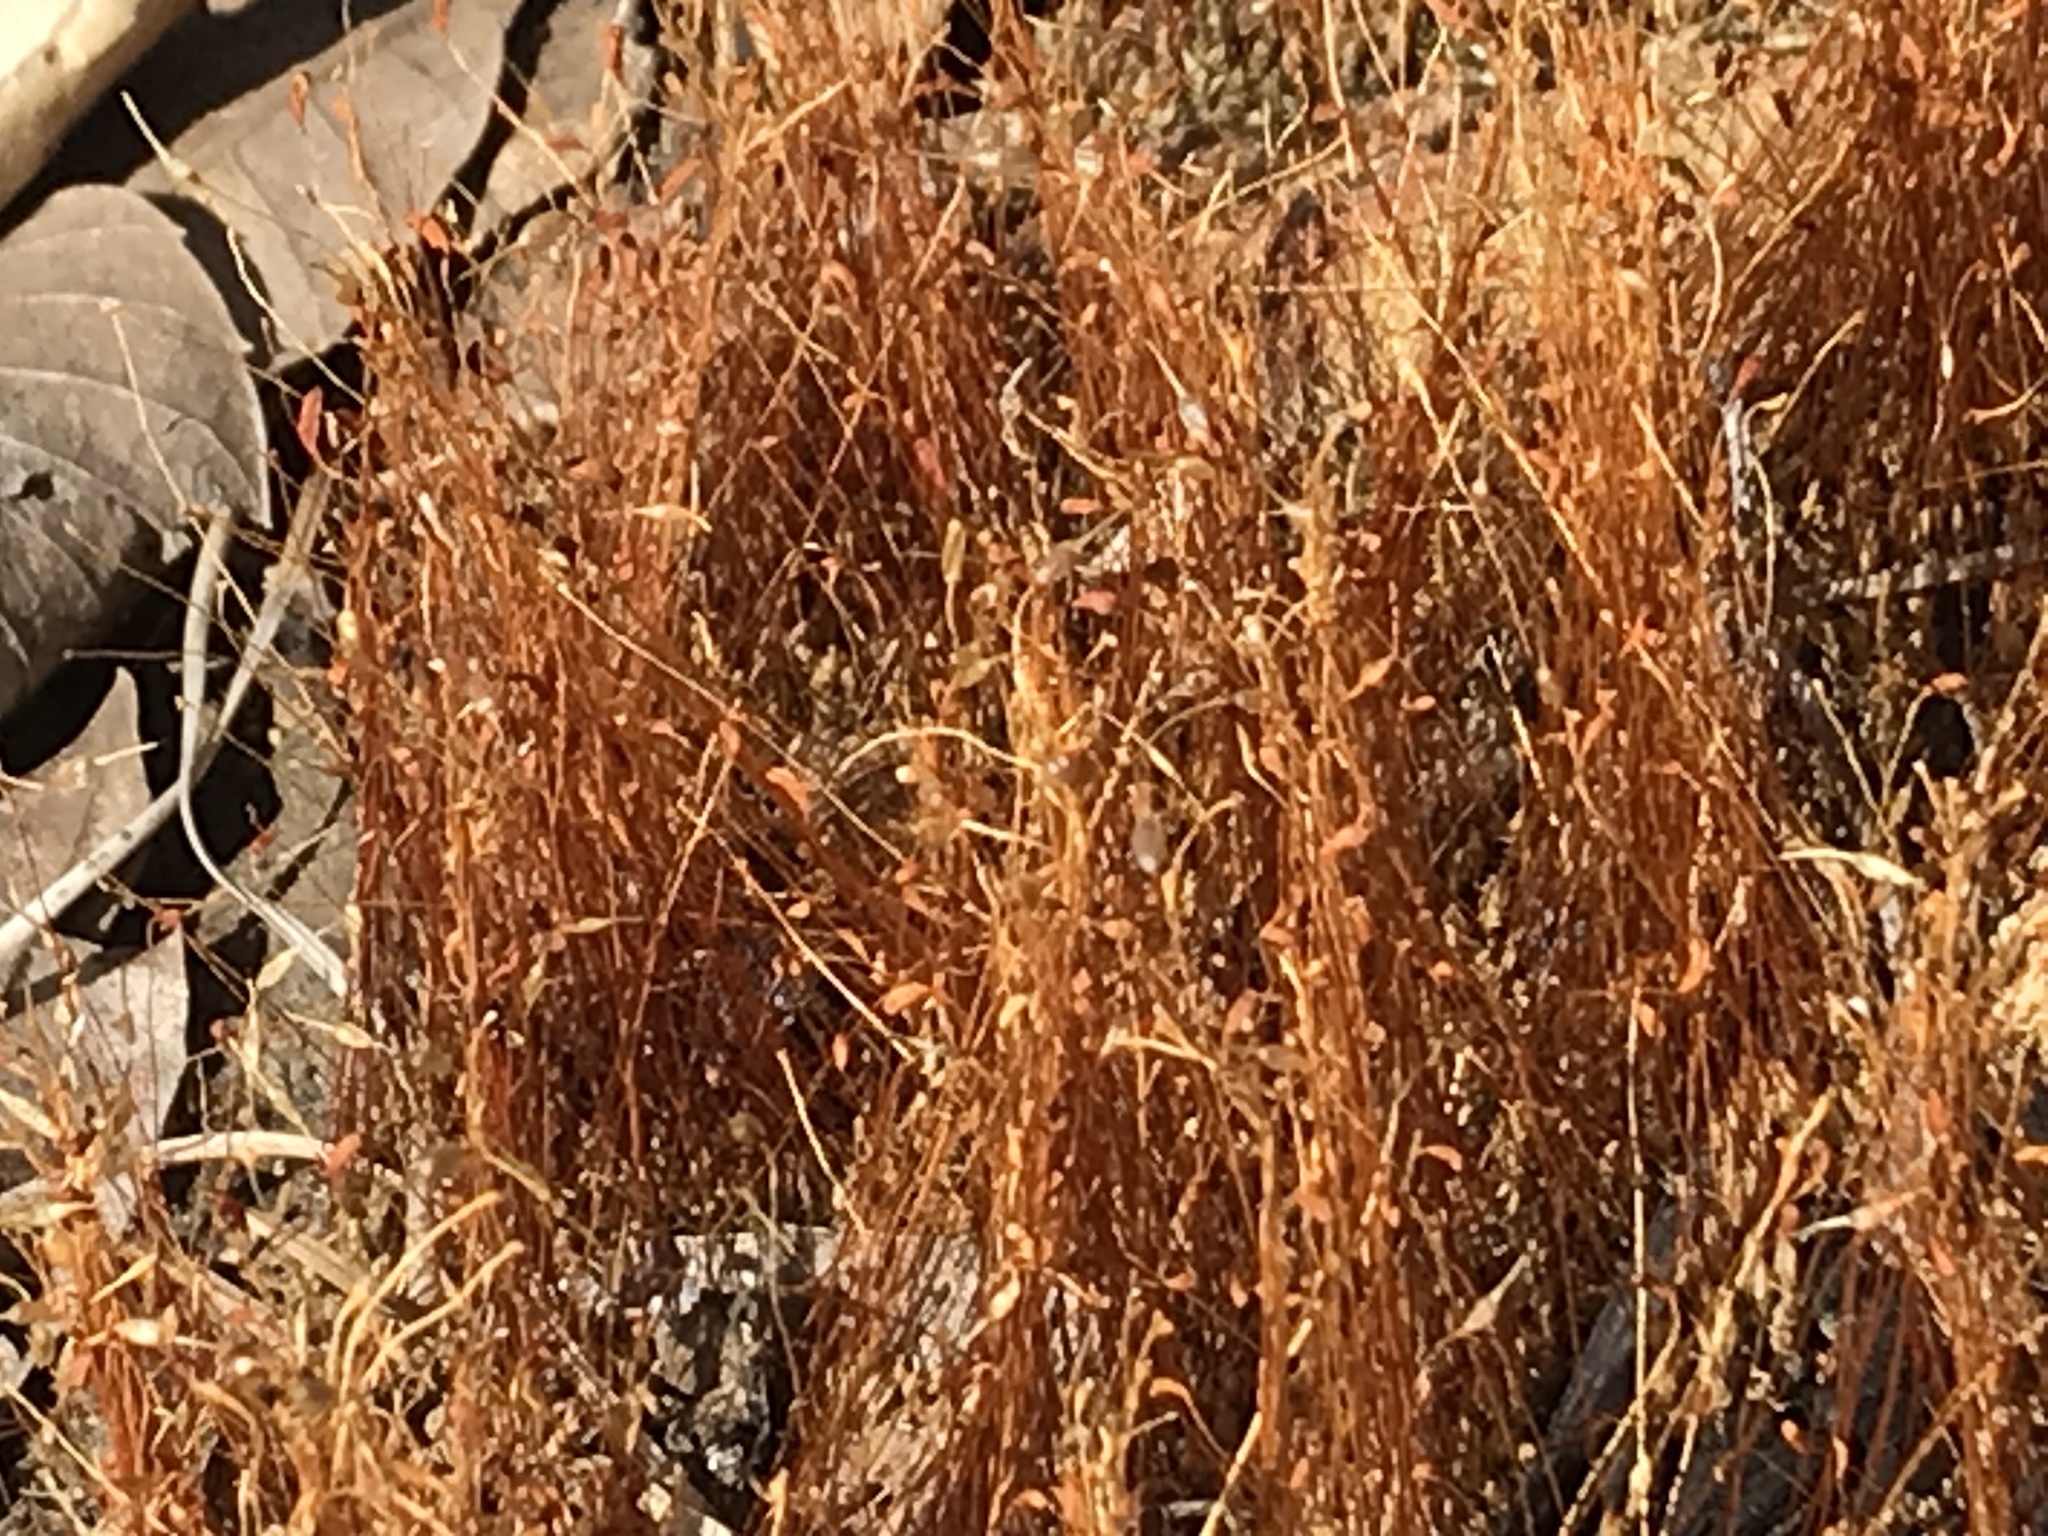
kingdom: Plantae
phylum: Bryophyta
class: Bryopsida
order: Funariales
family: Funariaceae
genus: Funaria
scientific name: Funaria hygrometrica
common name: Common cord moss
